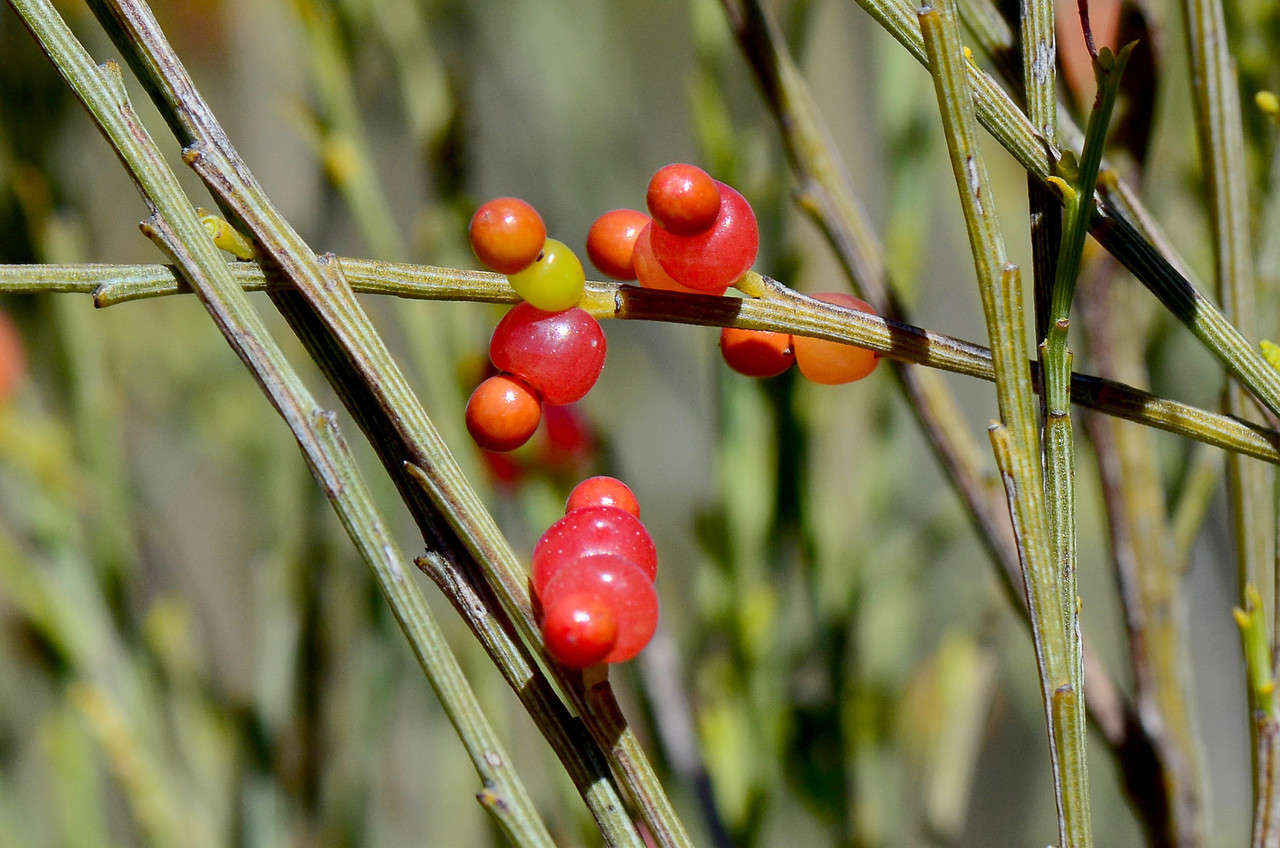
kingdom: Plantae
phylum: Tracheophyta
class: Magnoliopsida
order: Santalales
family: Santalaceae
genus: Exocarpos
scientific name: Exocarpos sparteus
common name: Broom ballart
